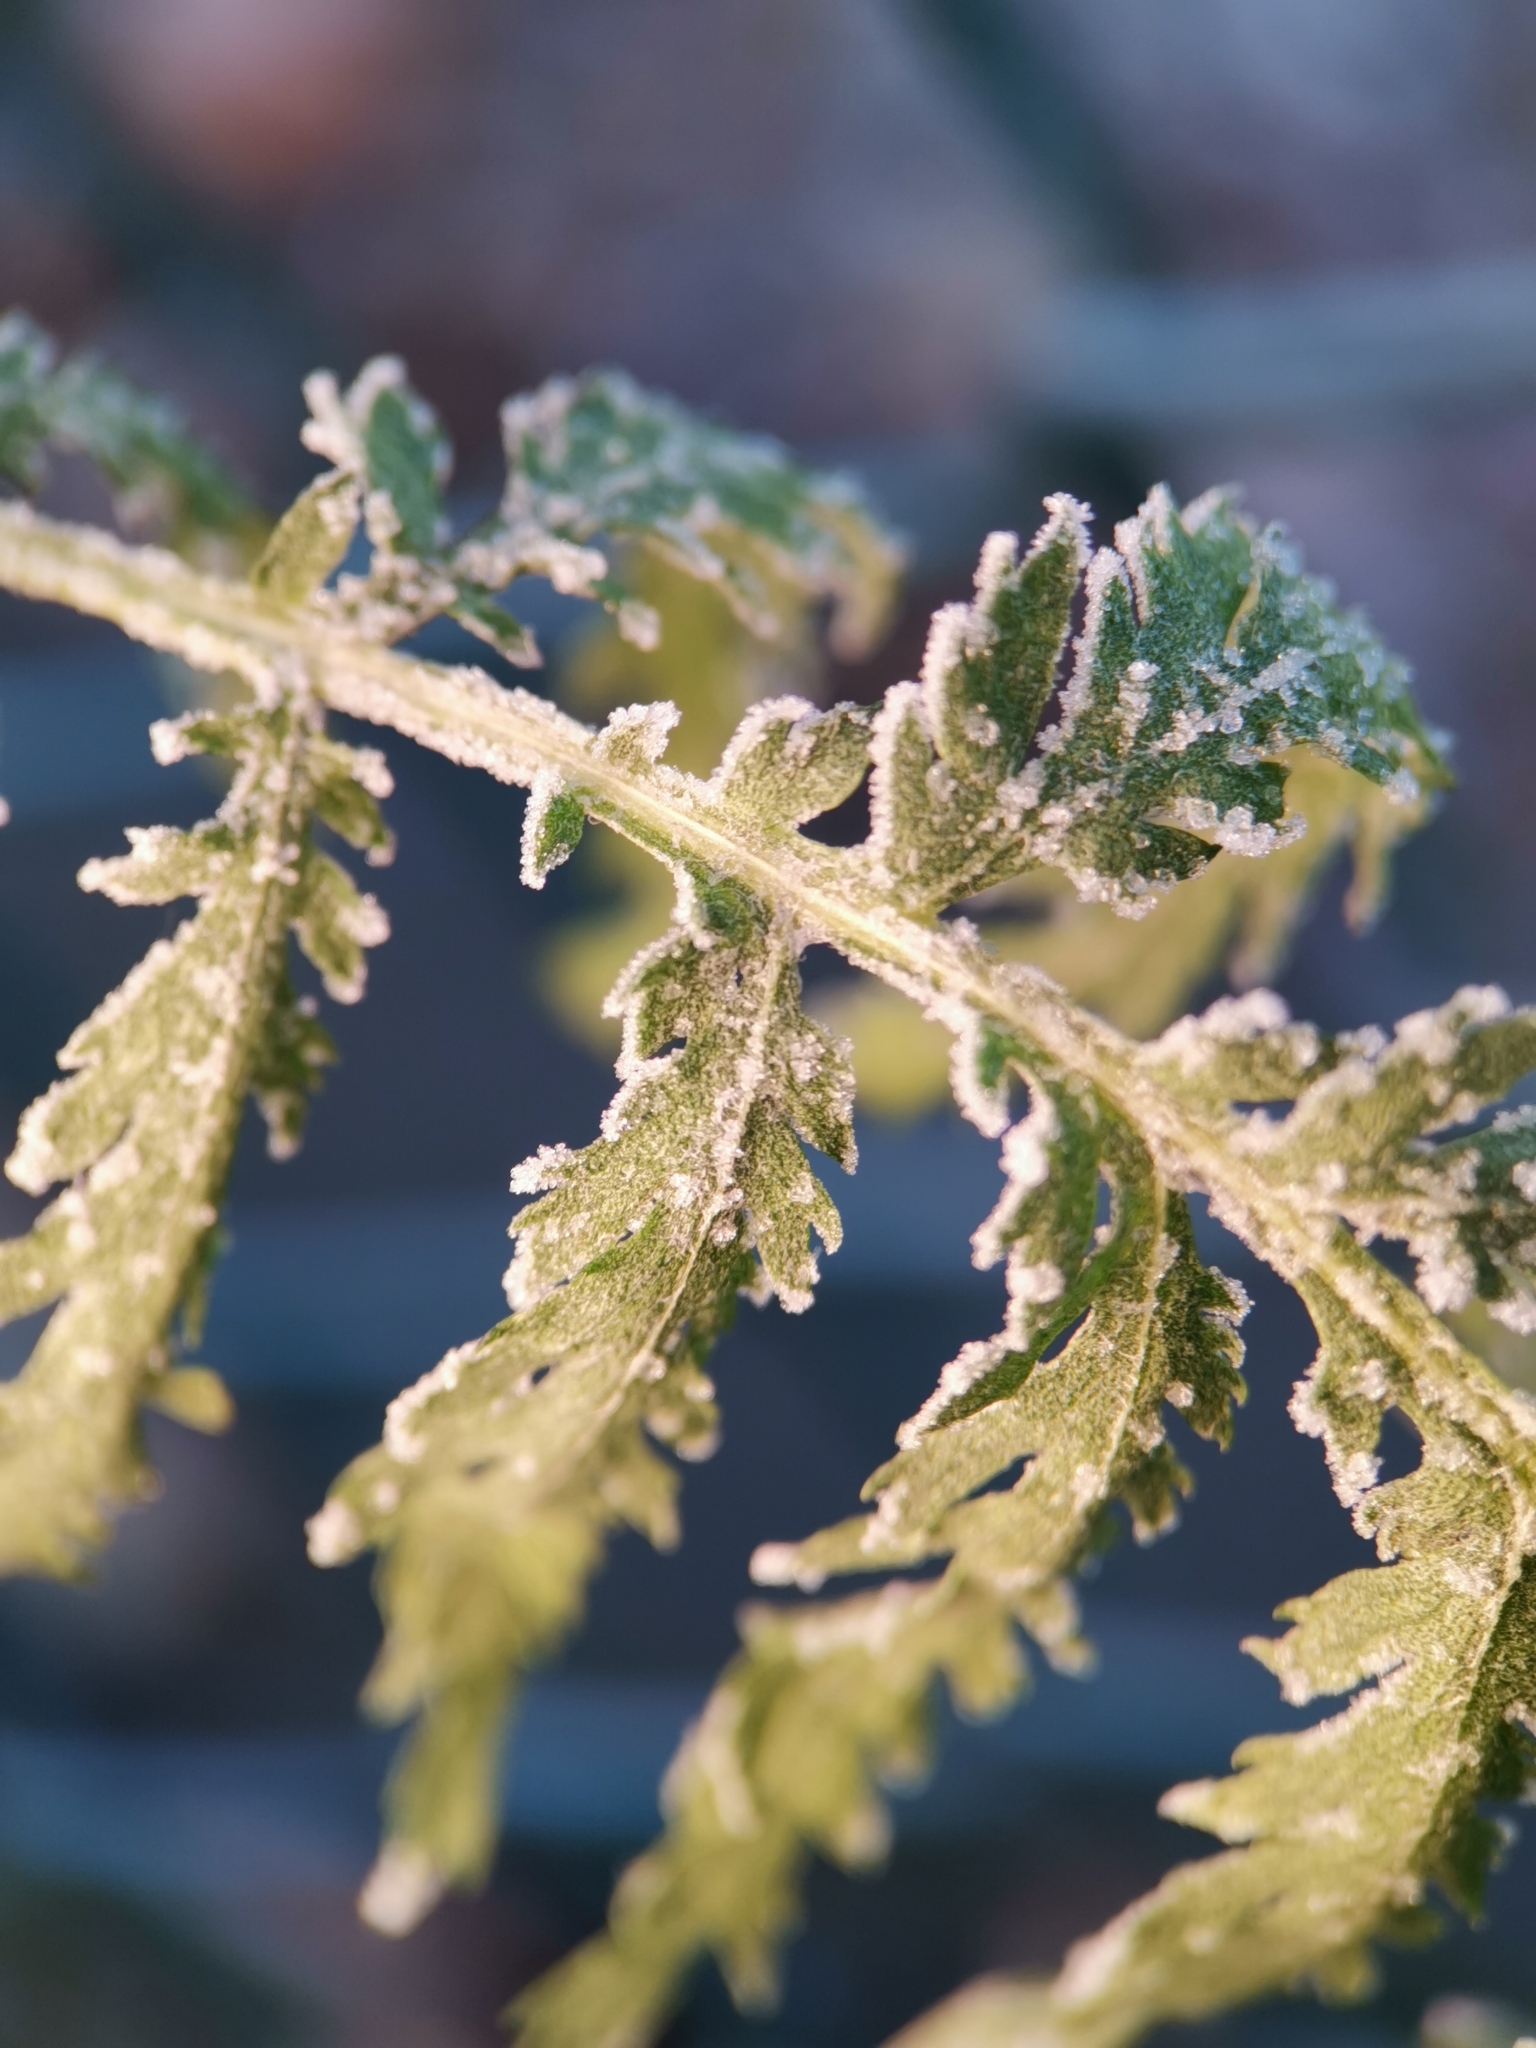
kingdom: Plantae
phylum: Tracheophyta
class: Magnoliopsida
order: Asterales
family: Asteraceae
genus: Tanacetum
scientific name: Tanacetum vulgare
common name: Common tansy
